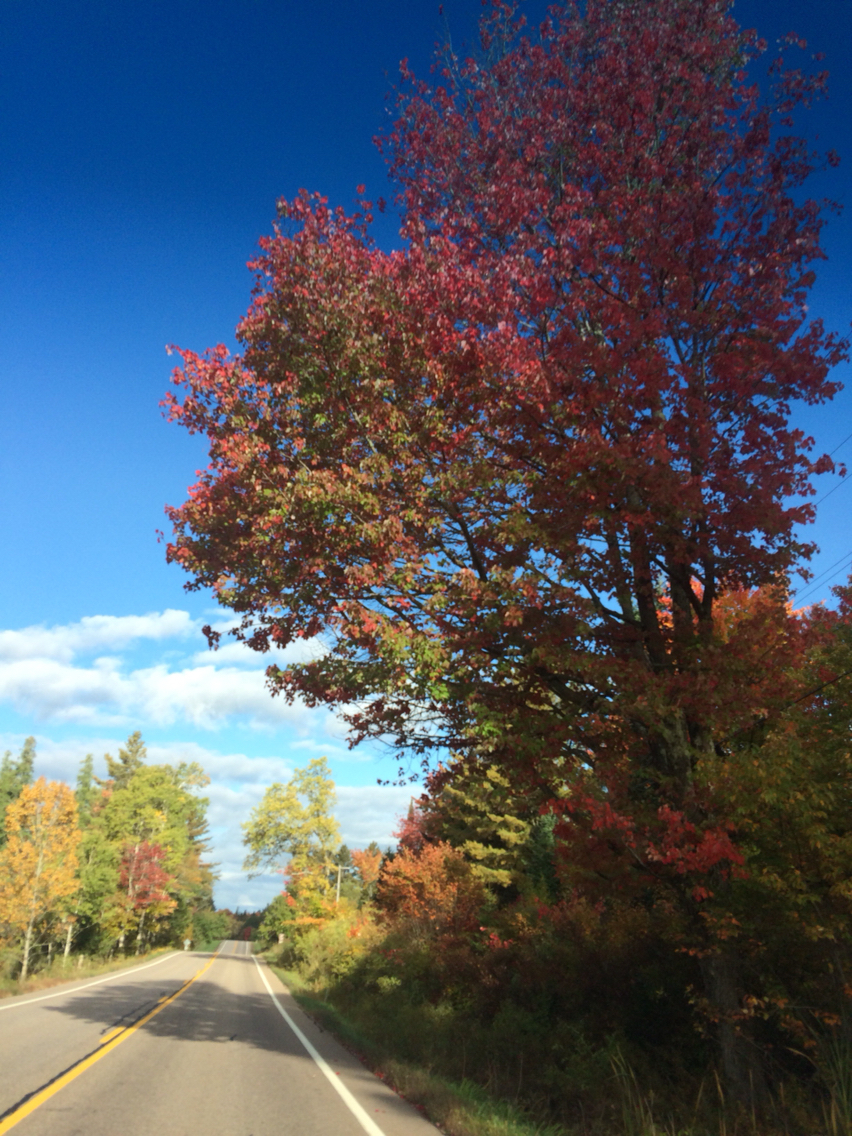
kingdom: Plantae
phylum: Tracheophyta
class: Magnoliopsida
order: Sapindales
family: Sapindaceae
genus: Acer
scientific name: Acer rubrum
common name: Red maple
